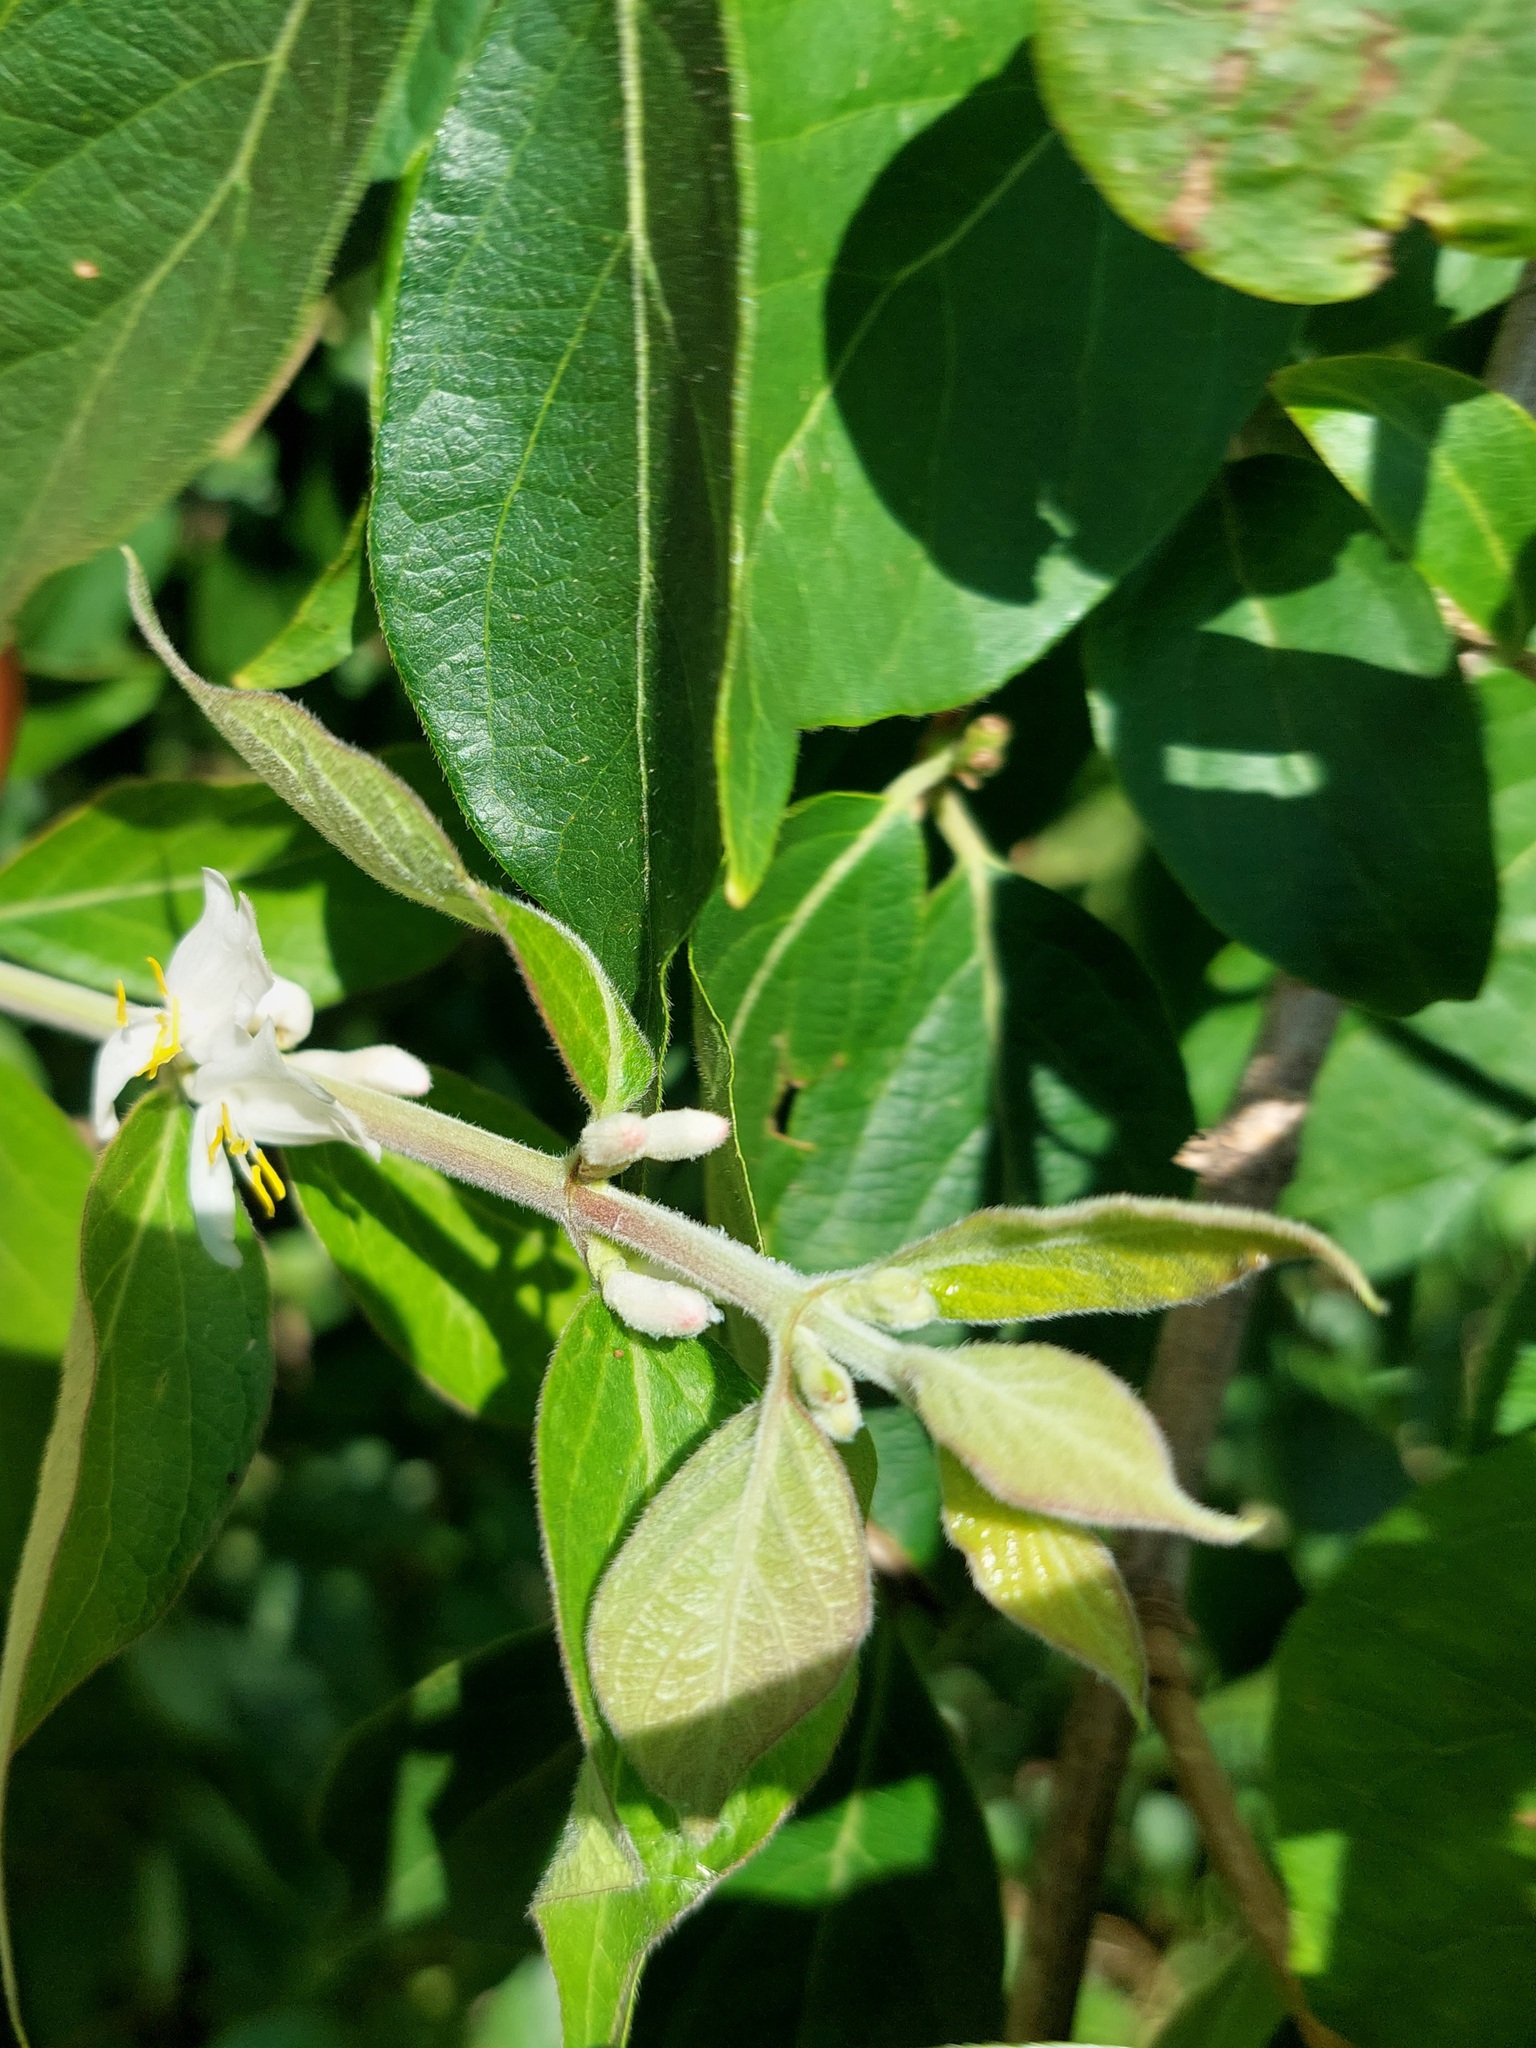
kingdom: Plantae
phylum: Tracheophyta
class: Magnoliopsida
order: Dipsacales
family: Caprifoliaceae
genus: Lonicera
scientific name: Lonicera maackii
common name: Amur honeysuckle
